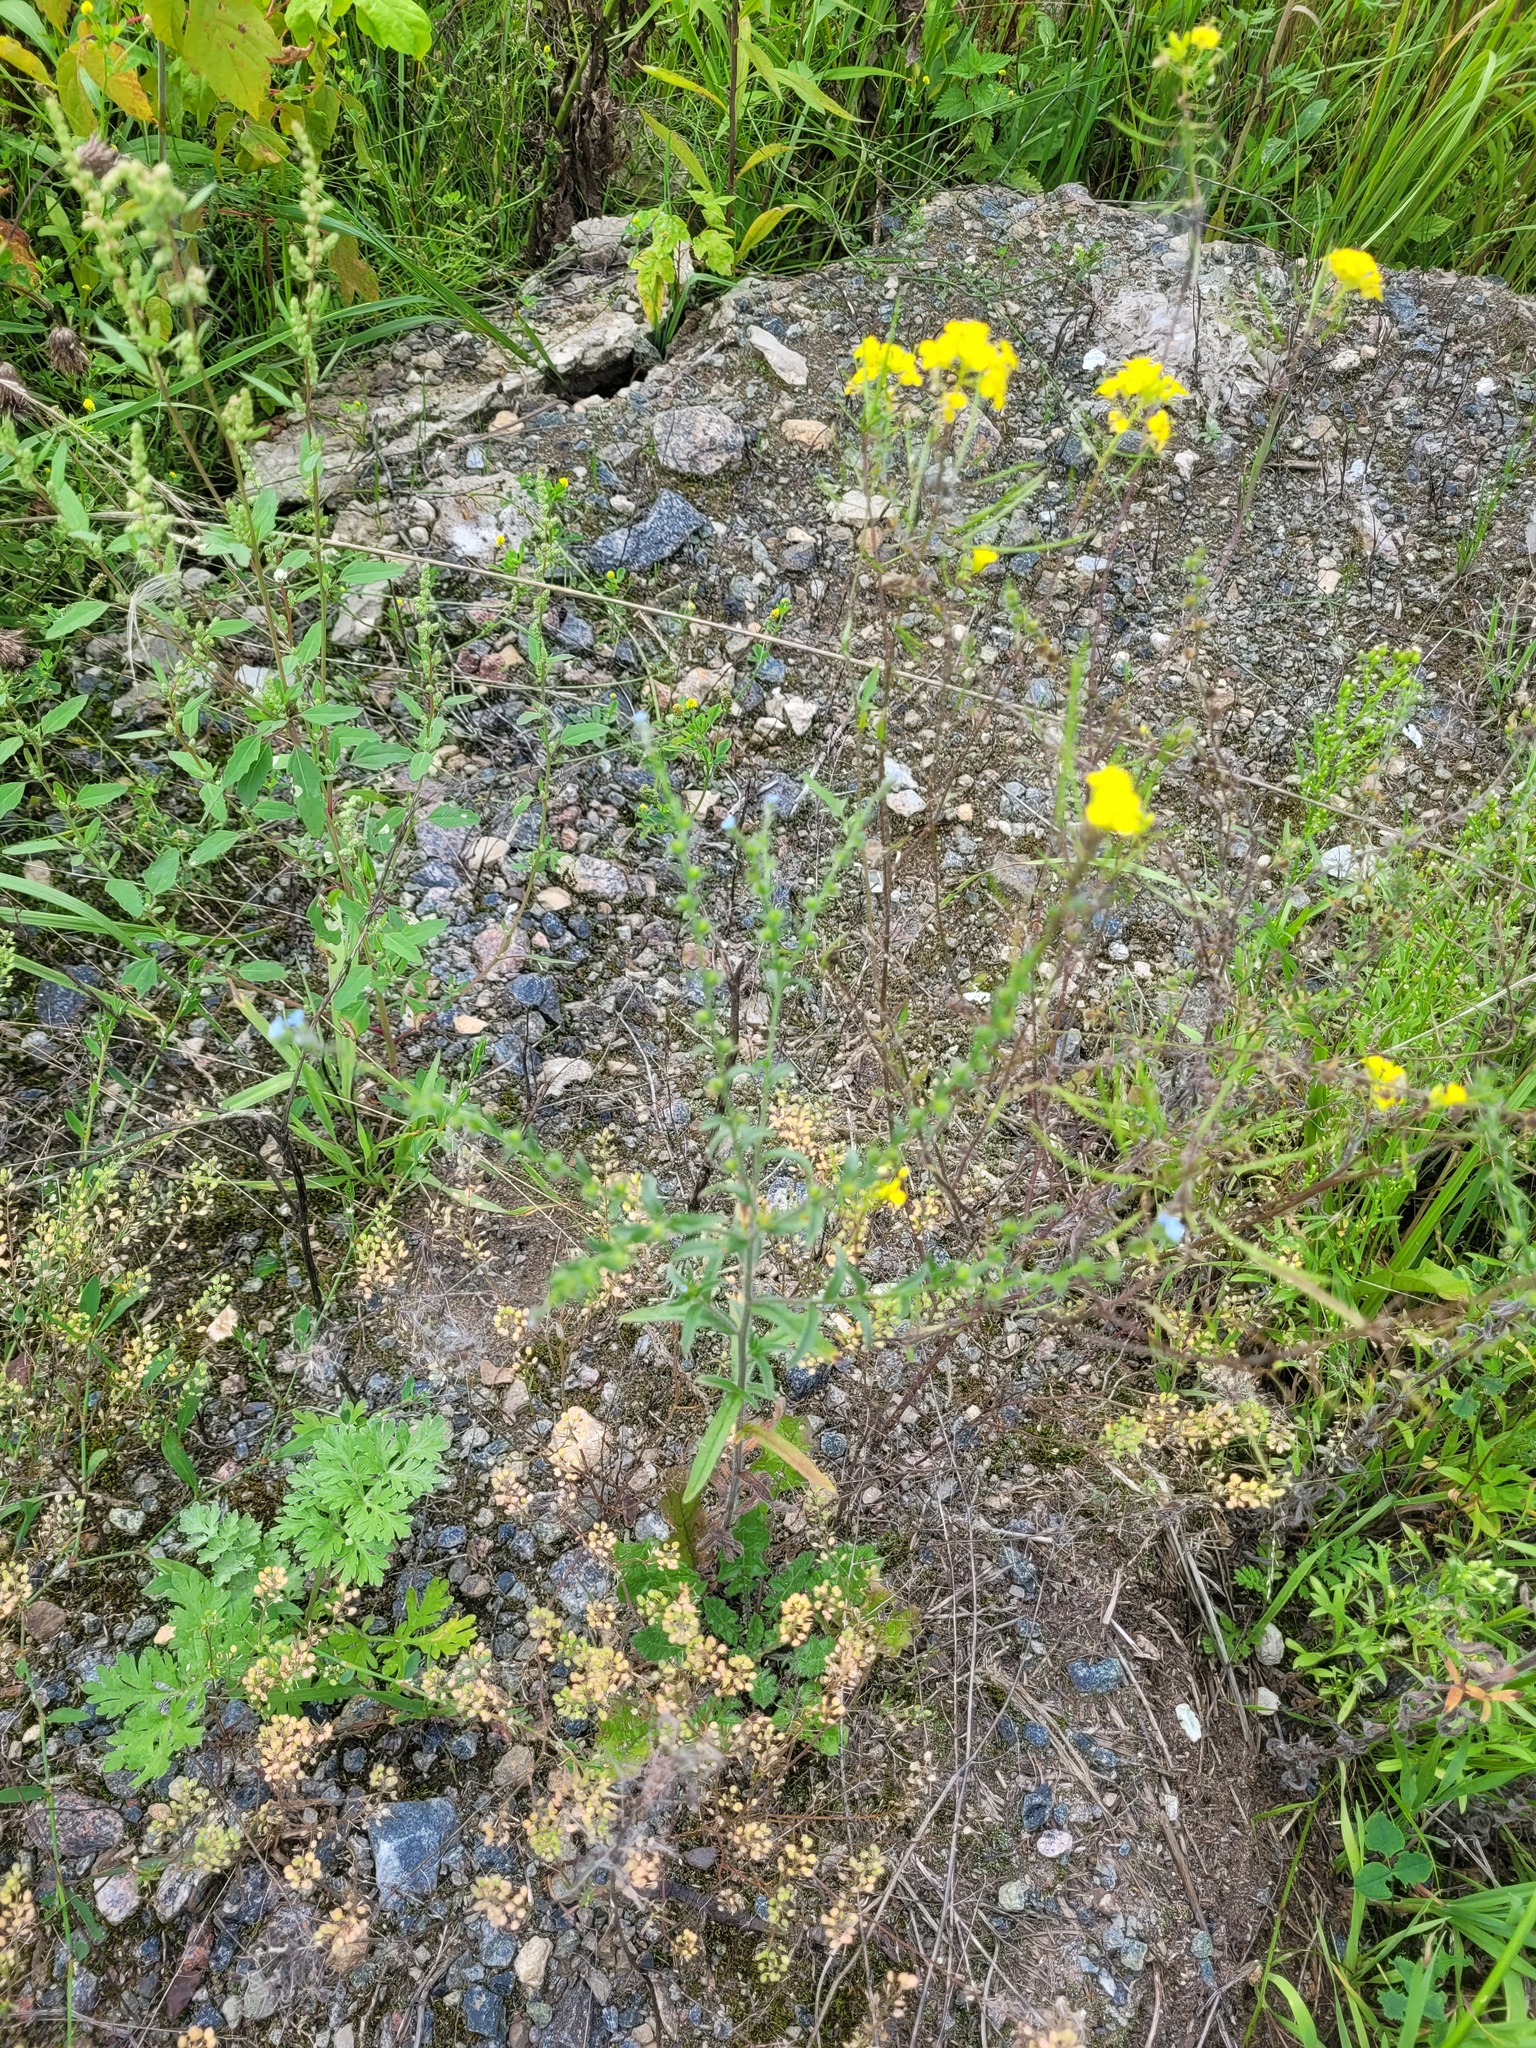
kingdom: Plantae
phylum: Tracheophyta
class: Magnoliopsida
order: Boraginales
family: Boraginaceae
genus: Lappula
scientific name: Lappula squarrosa
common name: European stickseed
